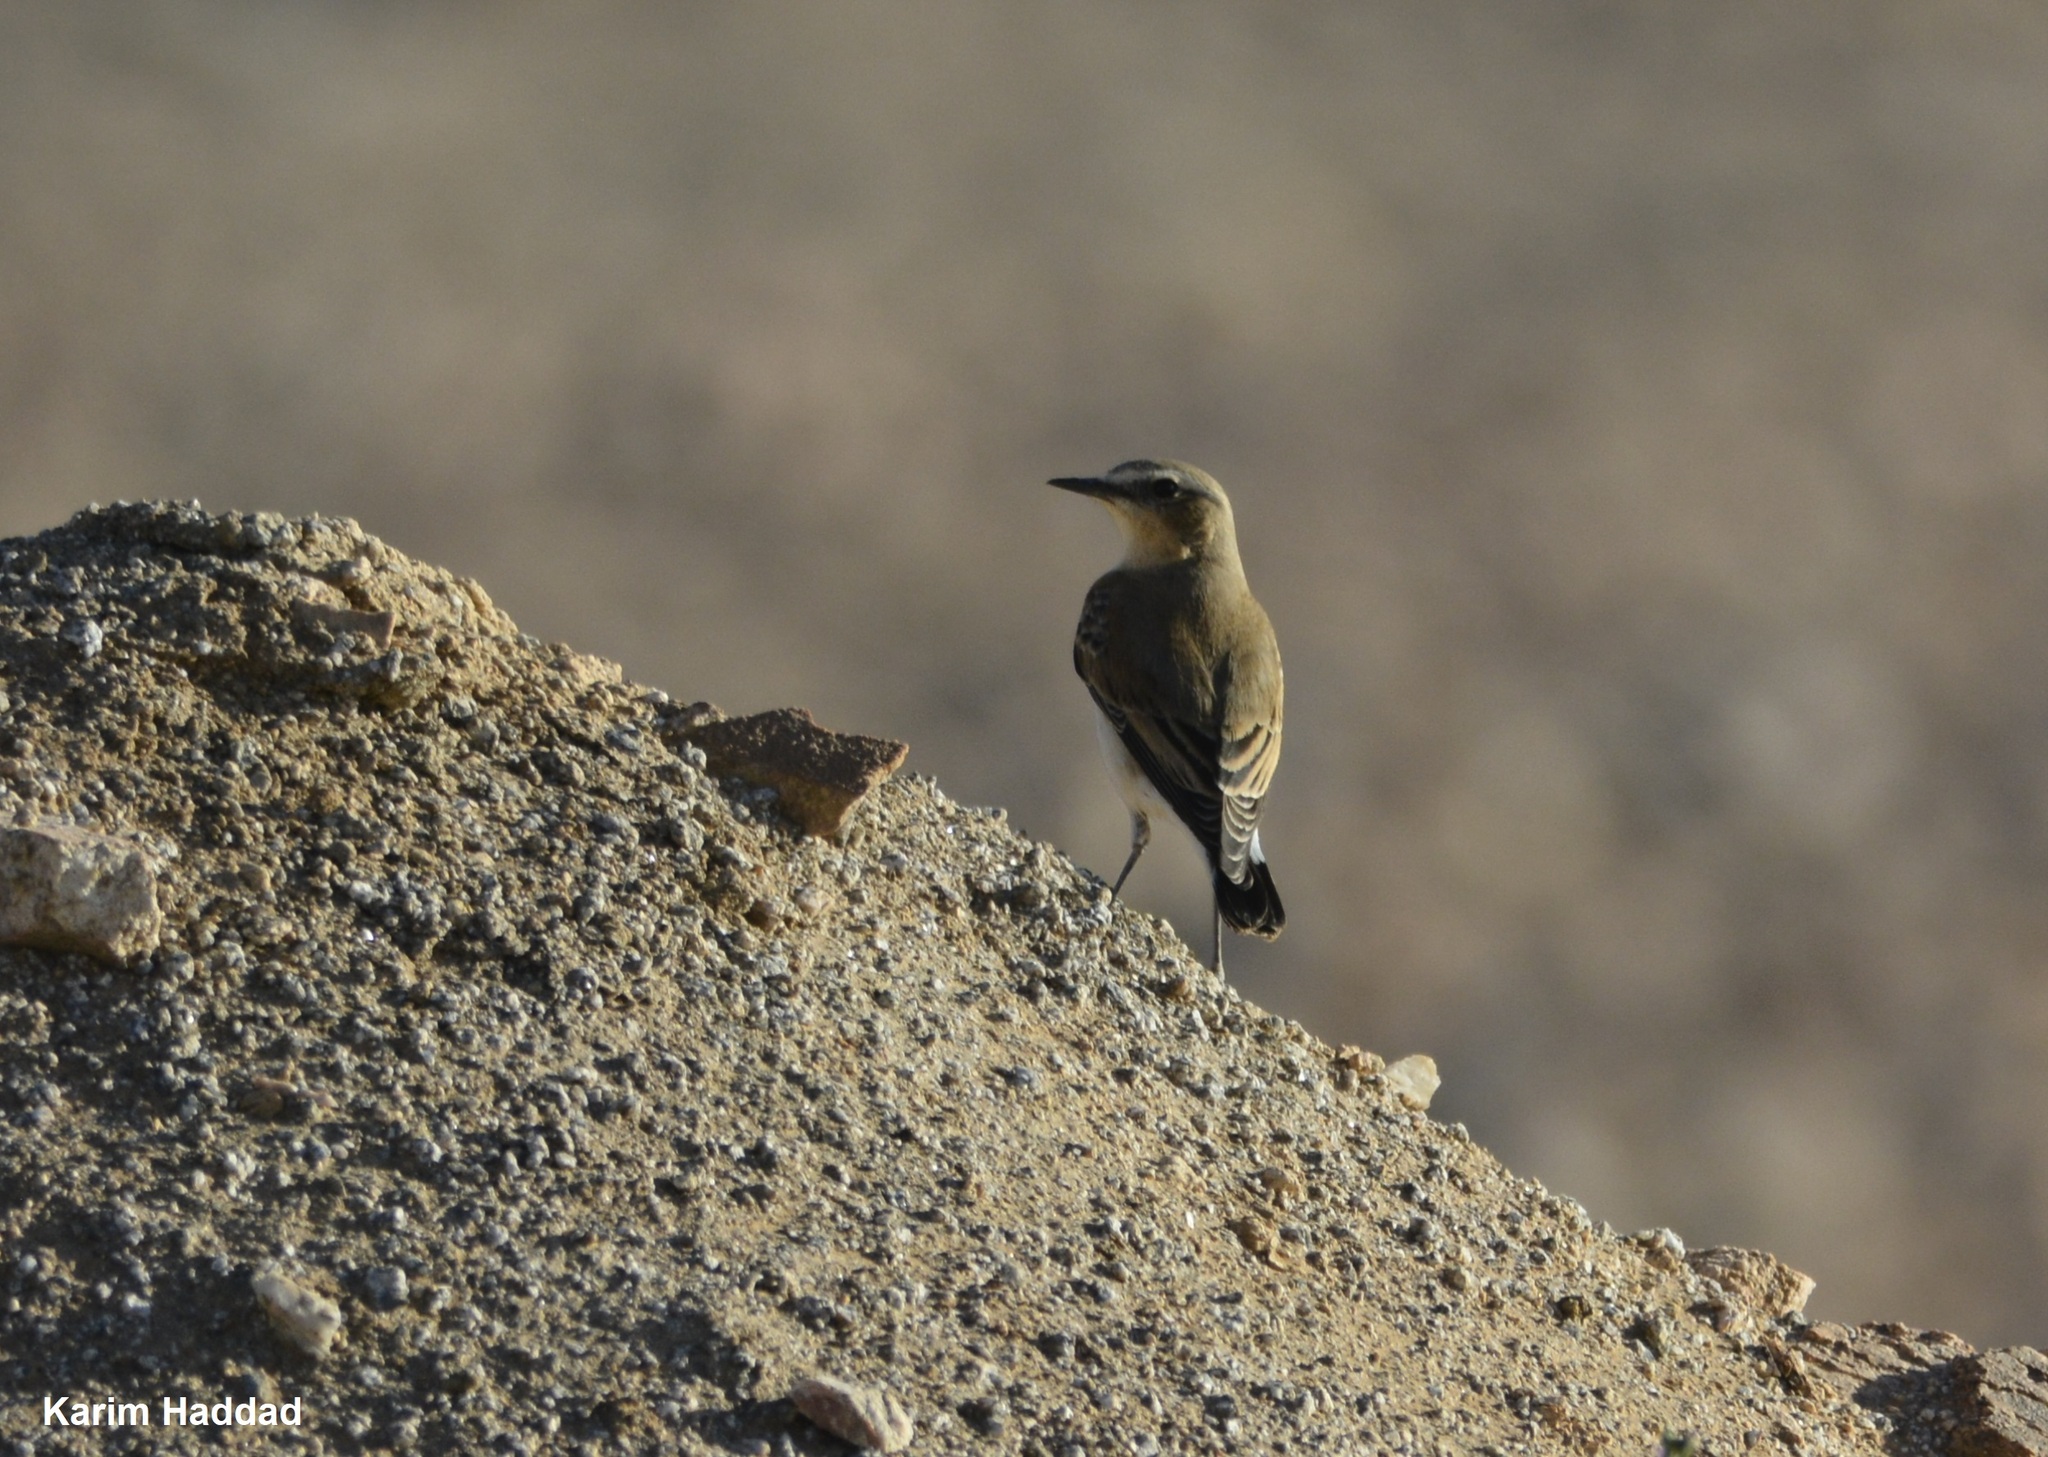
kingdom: Animalia
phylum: Chordata
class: Aves
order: Passeriformes
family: Muscicapidae
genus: Oenanthe
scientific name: Oenanthe isabellina
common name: Isabelline wheatear
